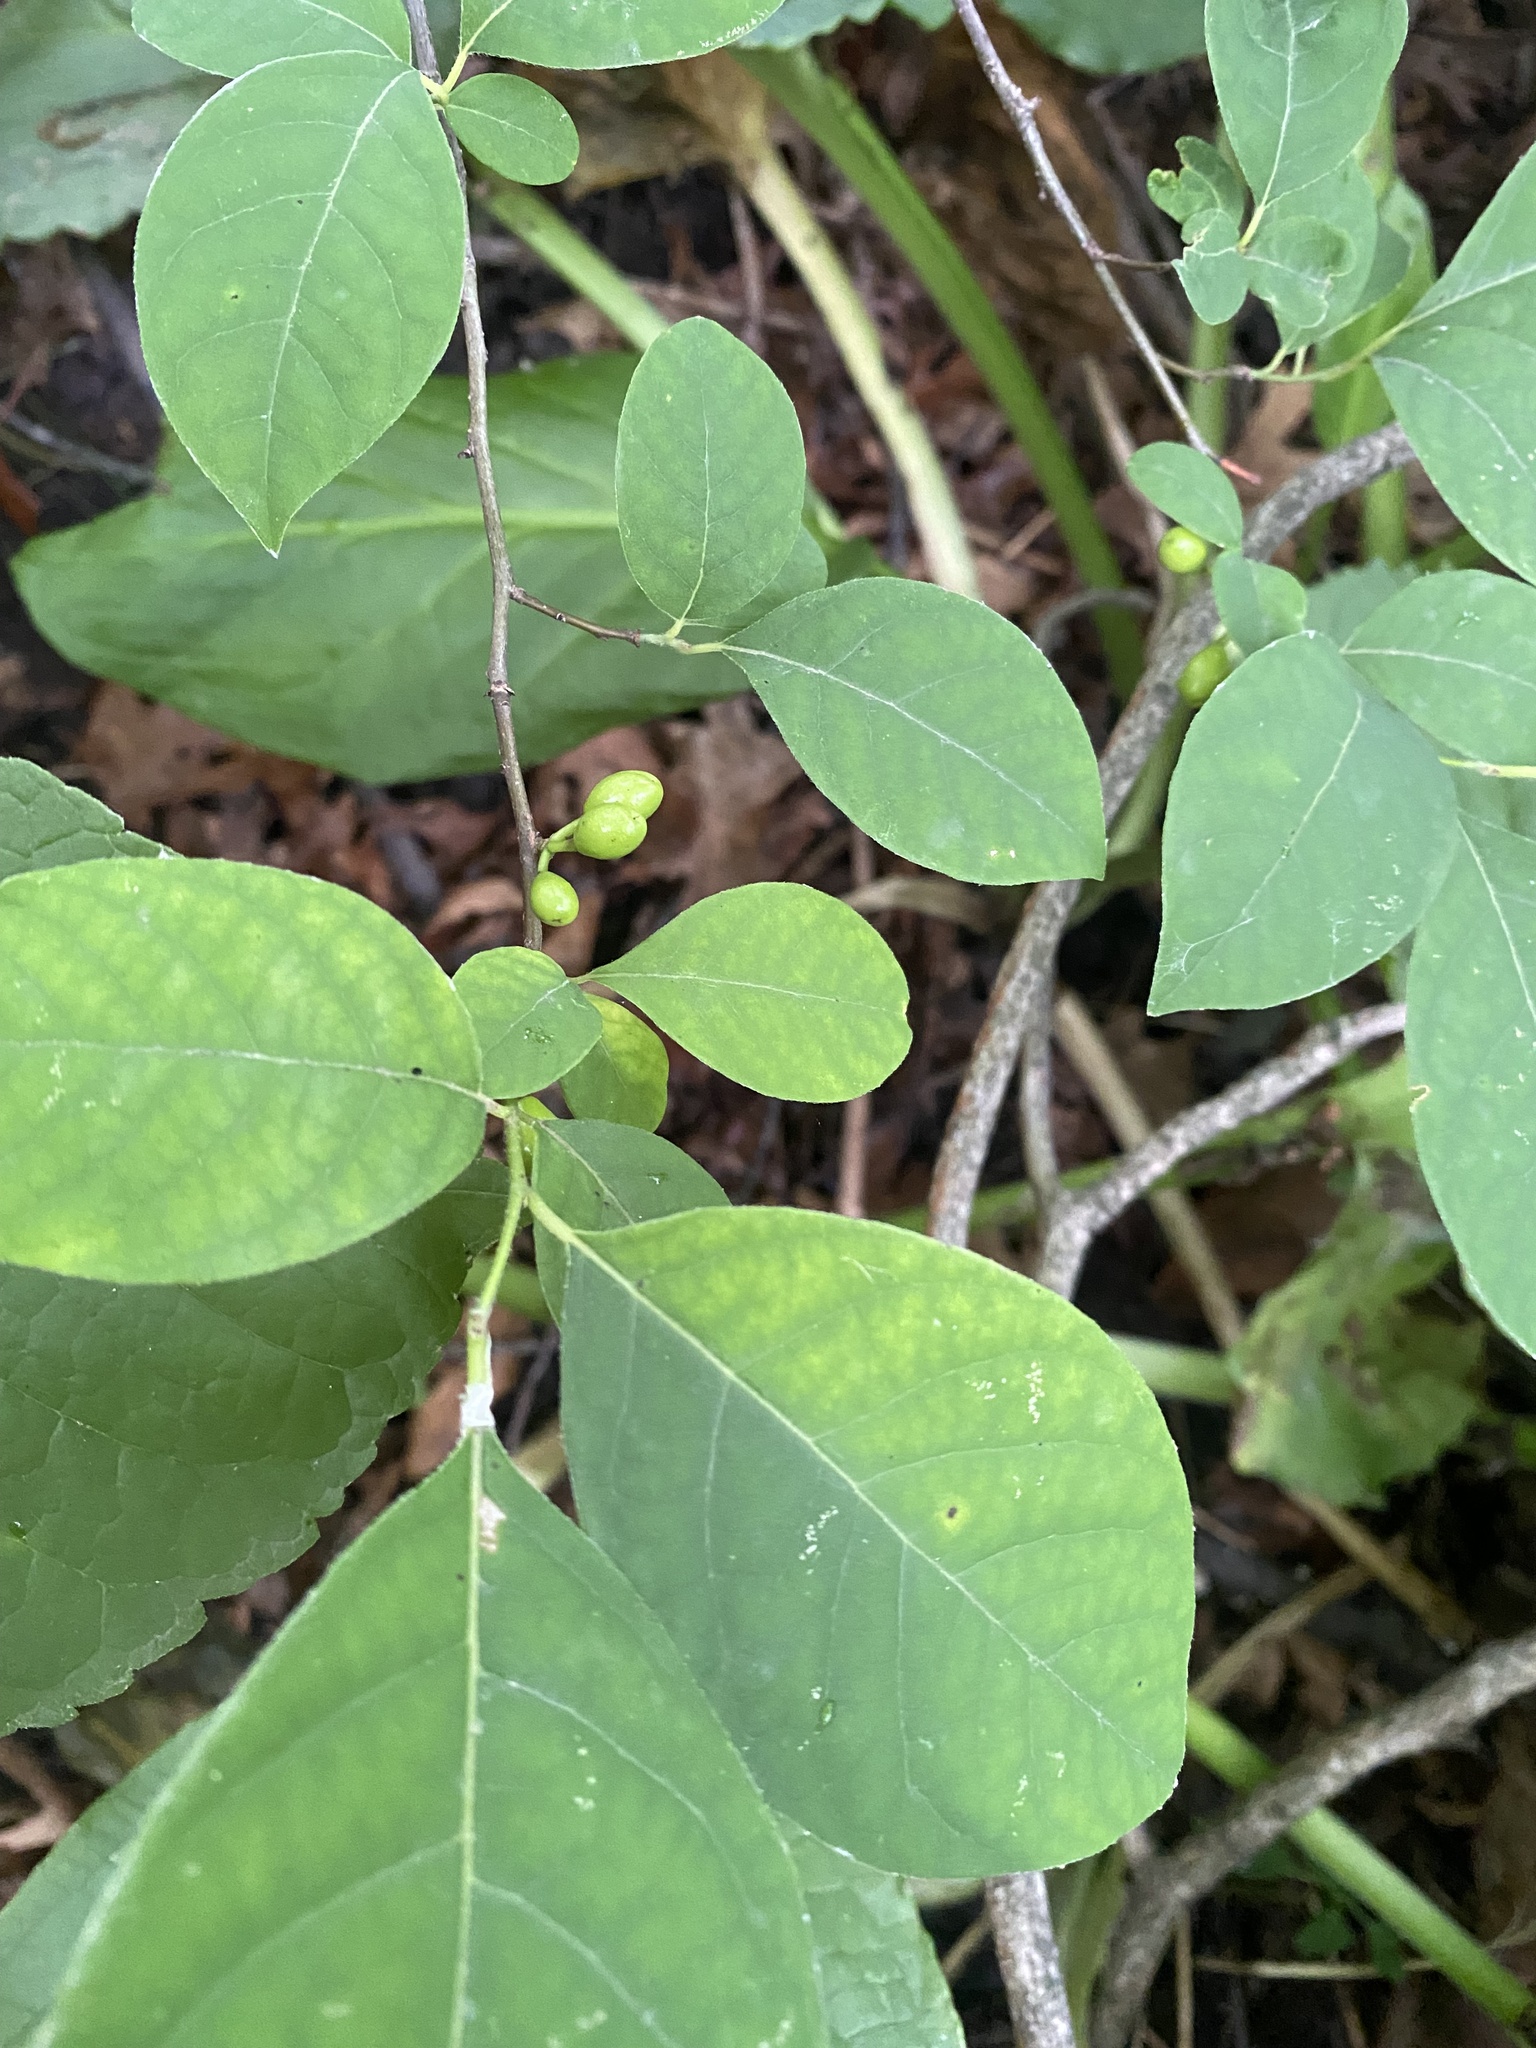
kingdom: Plantae
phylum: Tracheophyta
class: Magnoliopsida
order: Laurales
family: Lauraceae
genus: Lindera
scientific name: Lindera benzoin
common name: Spicebush
